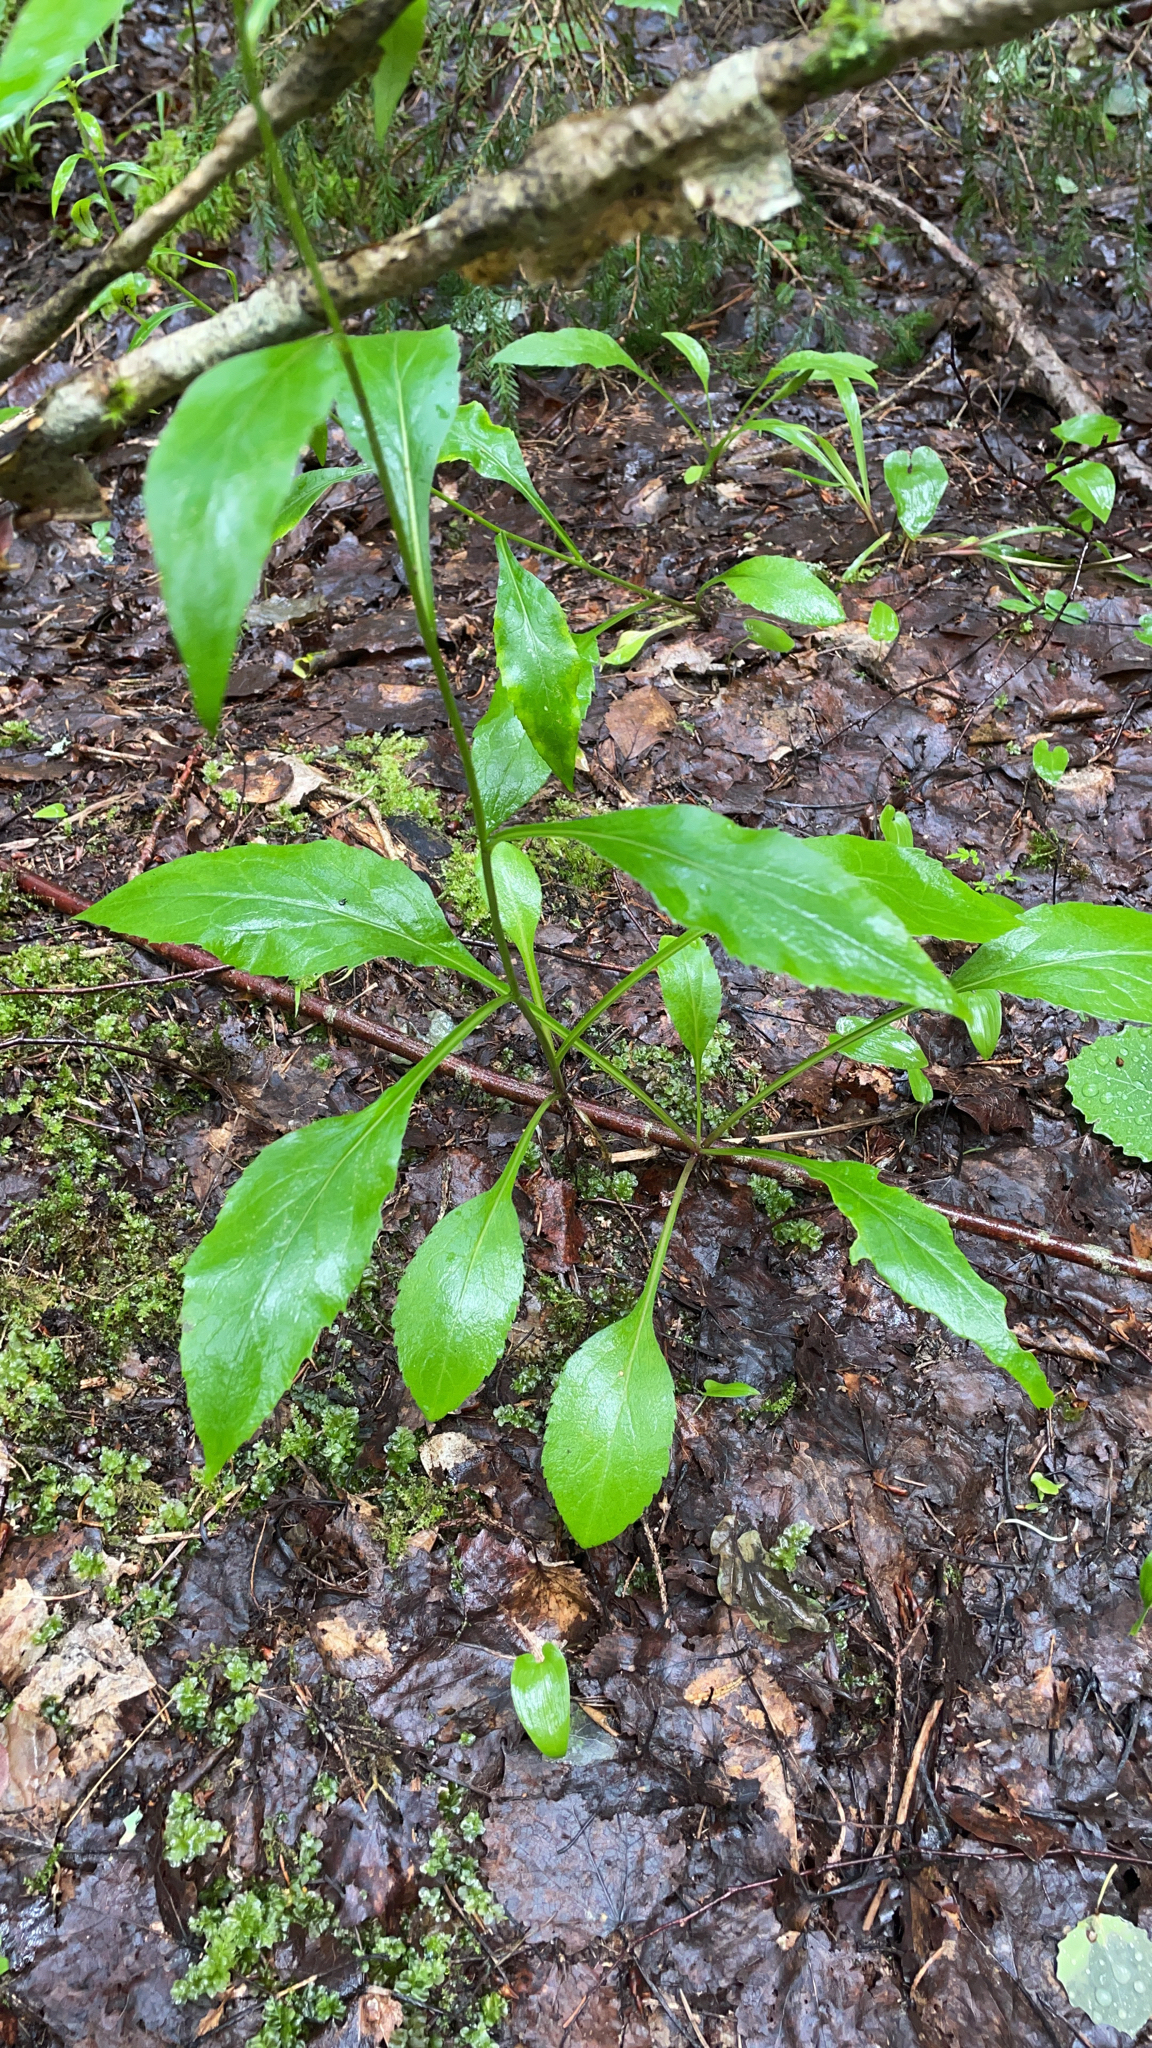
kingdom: Plantae
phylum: Tracheophyta
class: Magnoliopsida
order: Asterales
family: Asteraceae
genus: Solidago
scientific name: Solidago virgaurea
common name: Goldenrod
